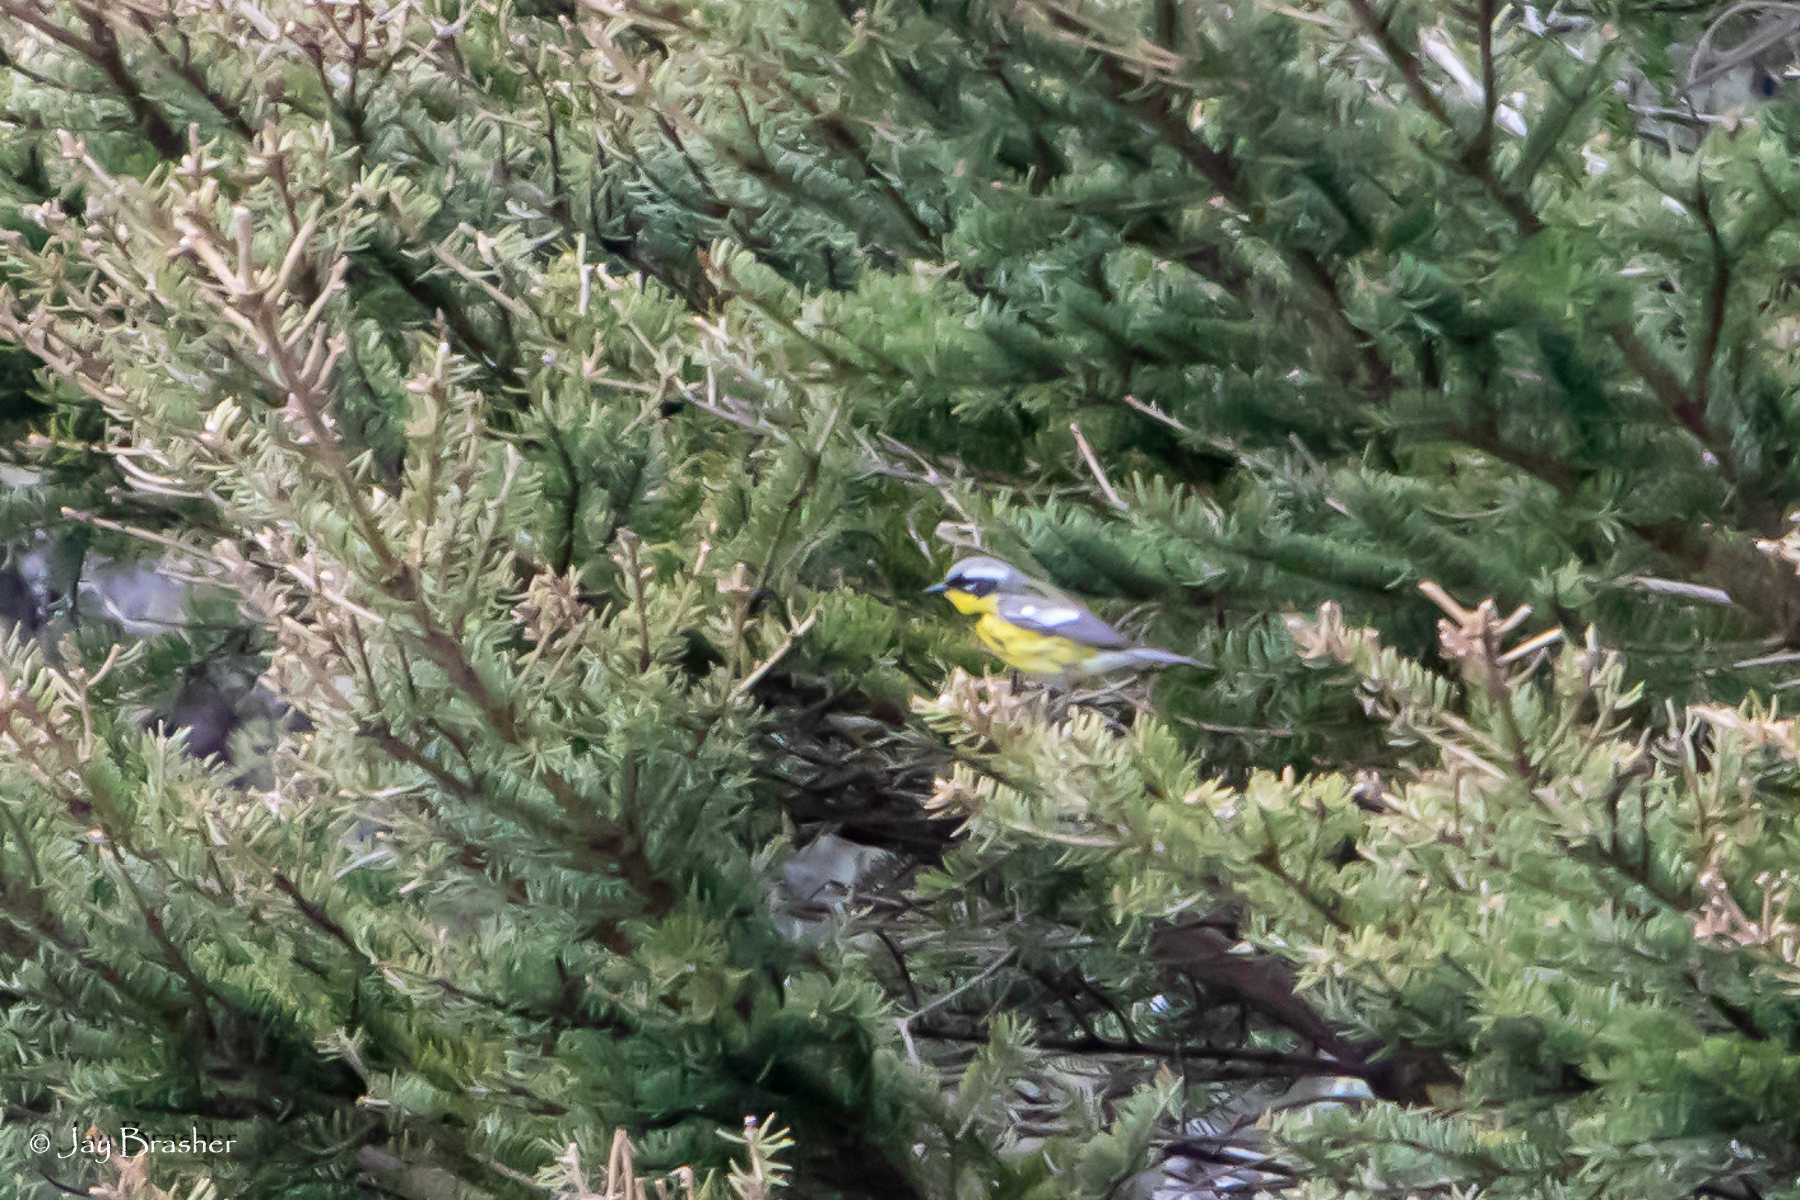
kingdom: Animalia
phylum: Chordata
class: Aves
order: Passeriformes
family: Parulidae
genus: Setophaga
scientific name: Setophaga coronata
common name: Myrtle warbler
